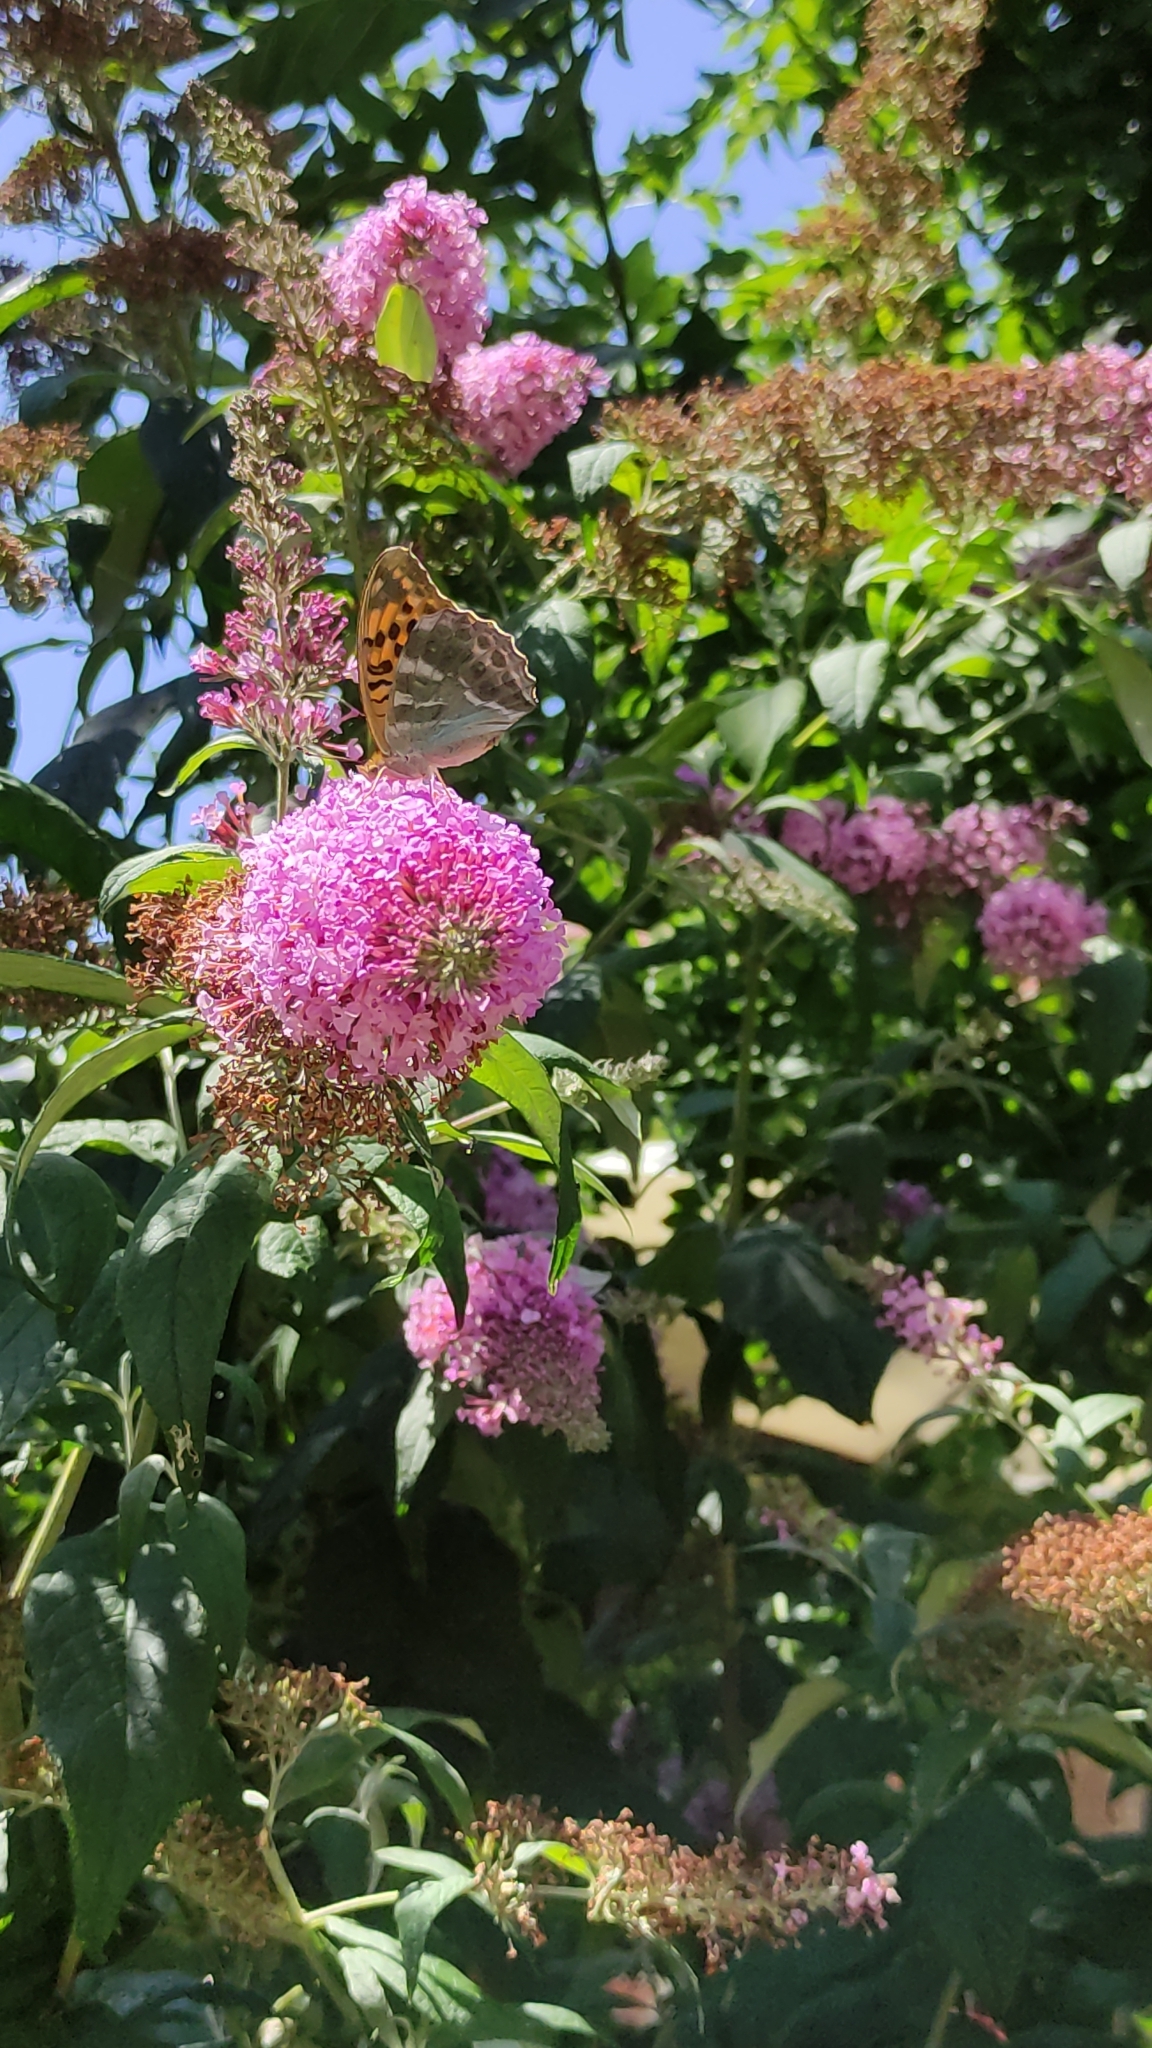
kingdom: Animalia
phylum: Arthropoda
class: Insecta
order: Lepidoptera
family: Nymphalidae
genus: Argynnis
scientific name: Argynnis paphia
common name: Silver-washed fritillary
